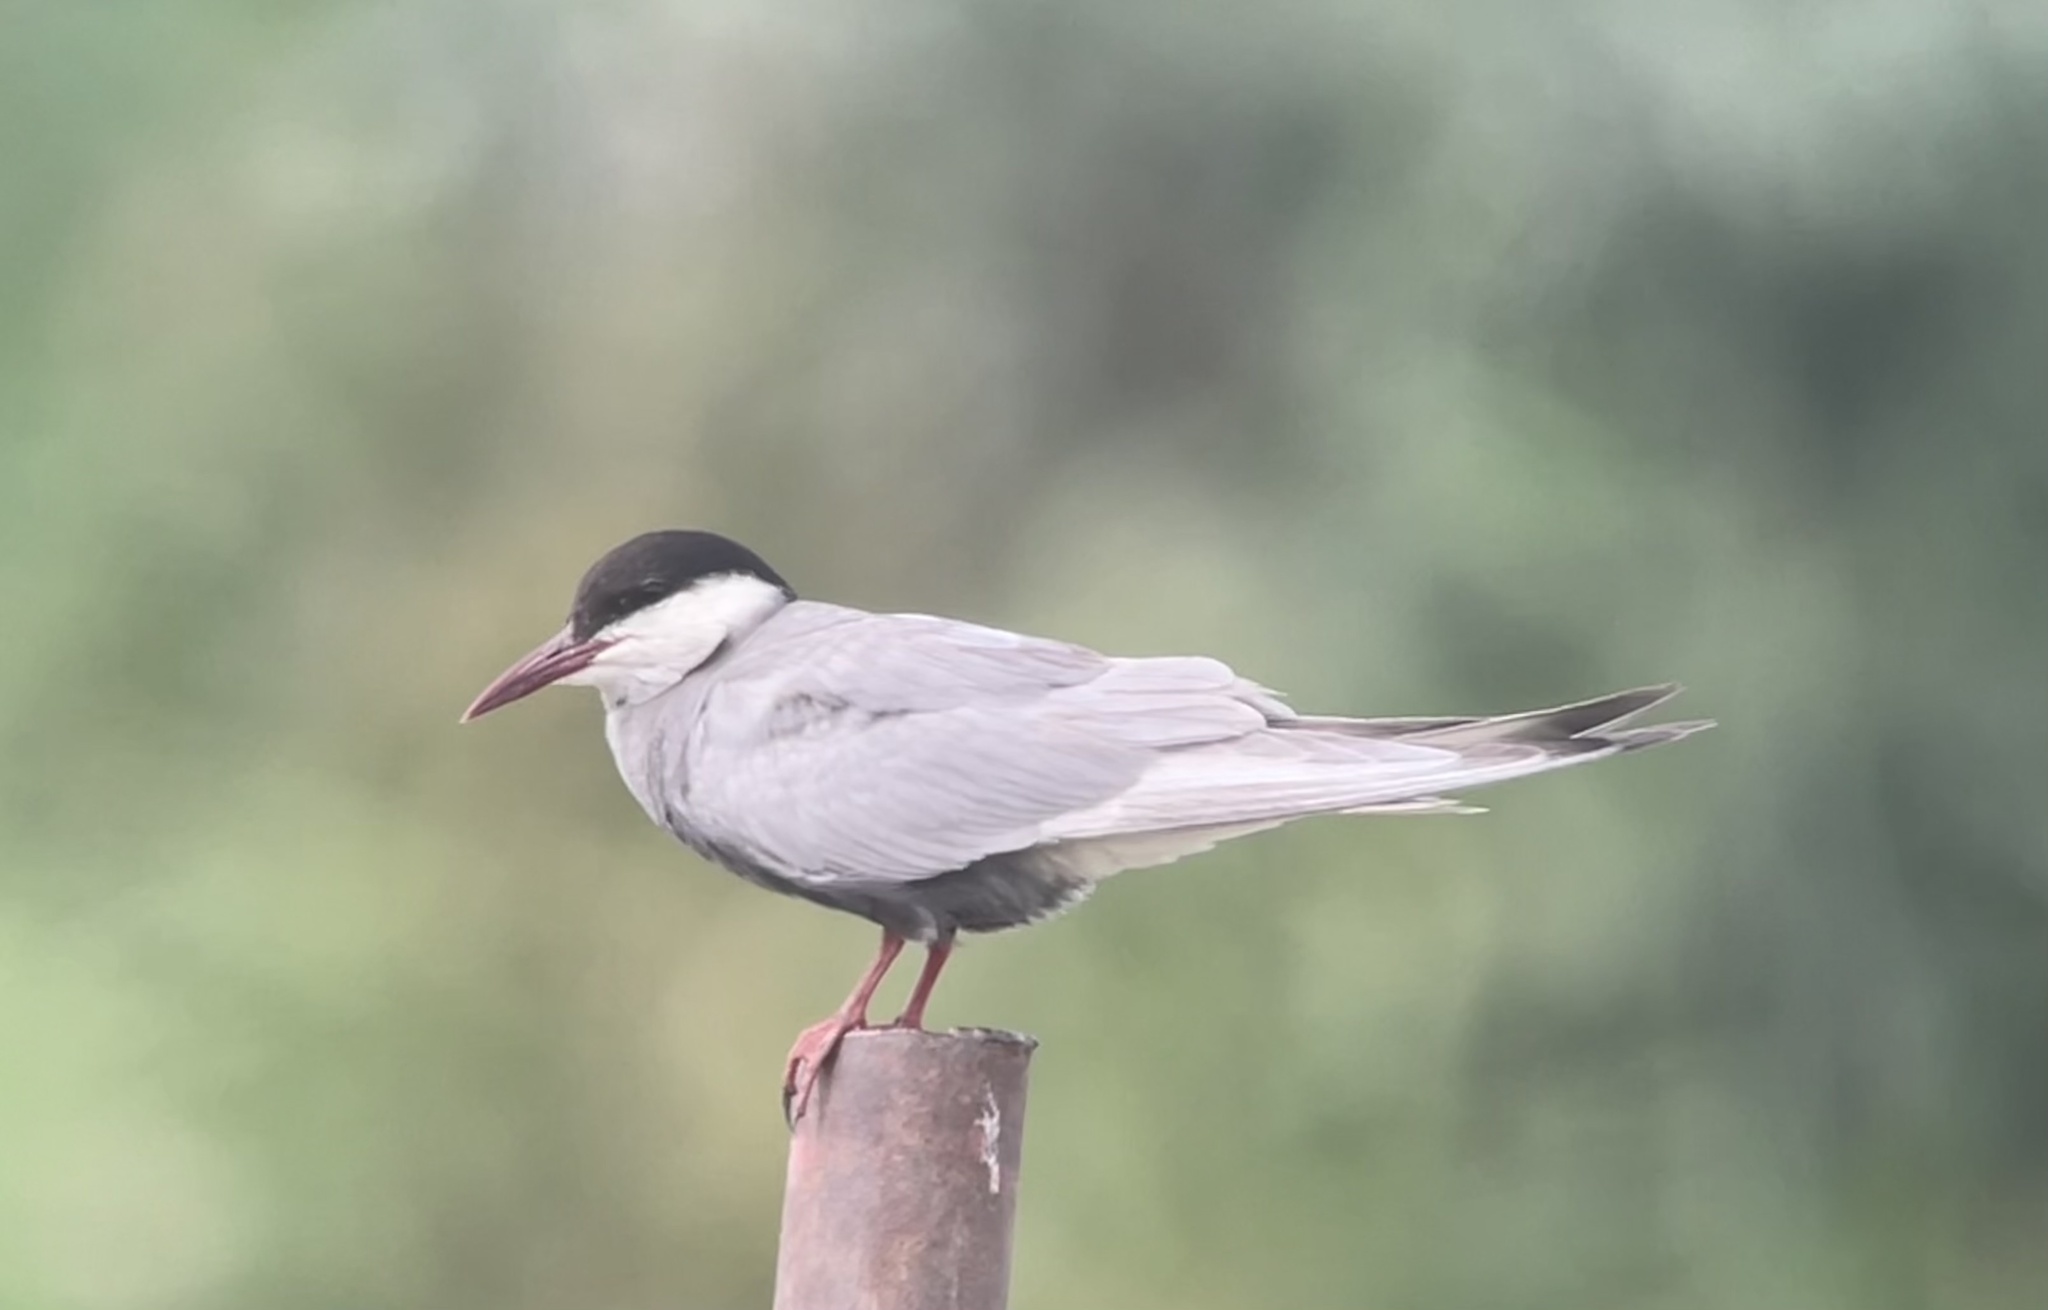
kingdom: Animalia
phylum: Chordata
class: Aves
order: Charadriiformes
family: Laridae
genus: Chlidonias
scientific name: Chlidonias hybrida
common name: Whiskered tern
